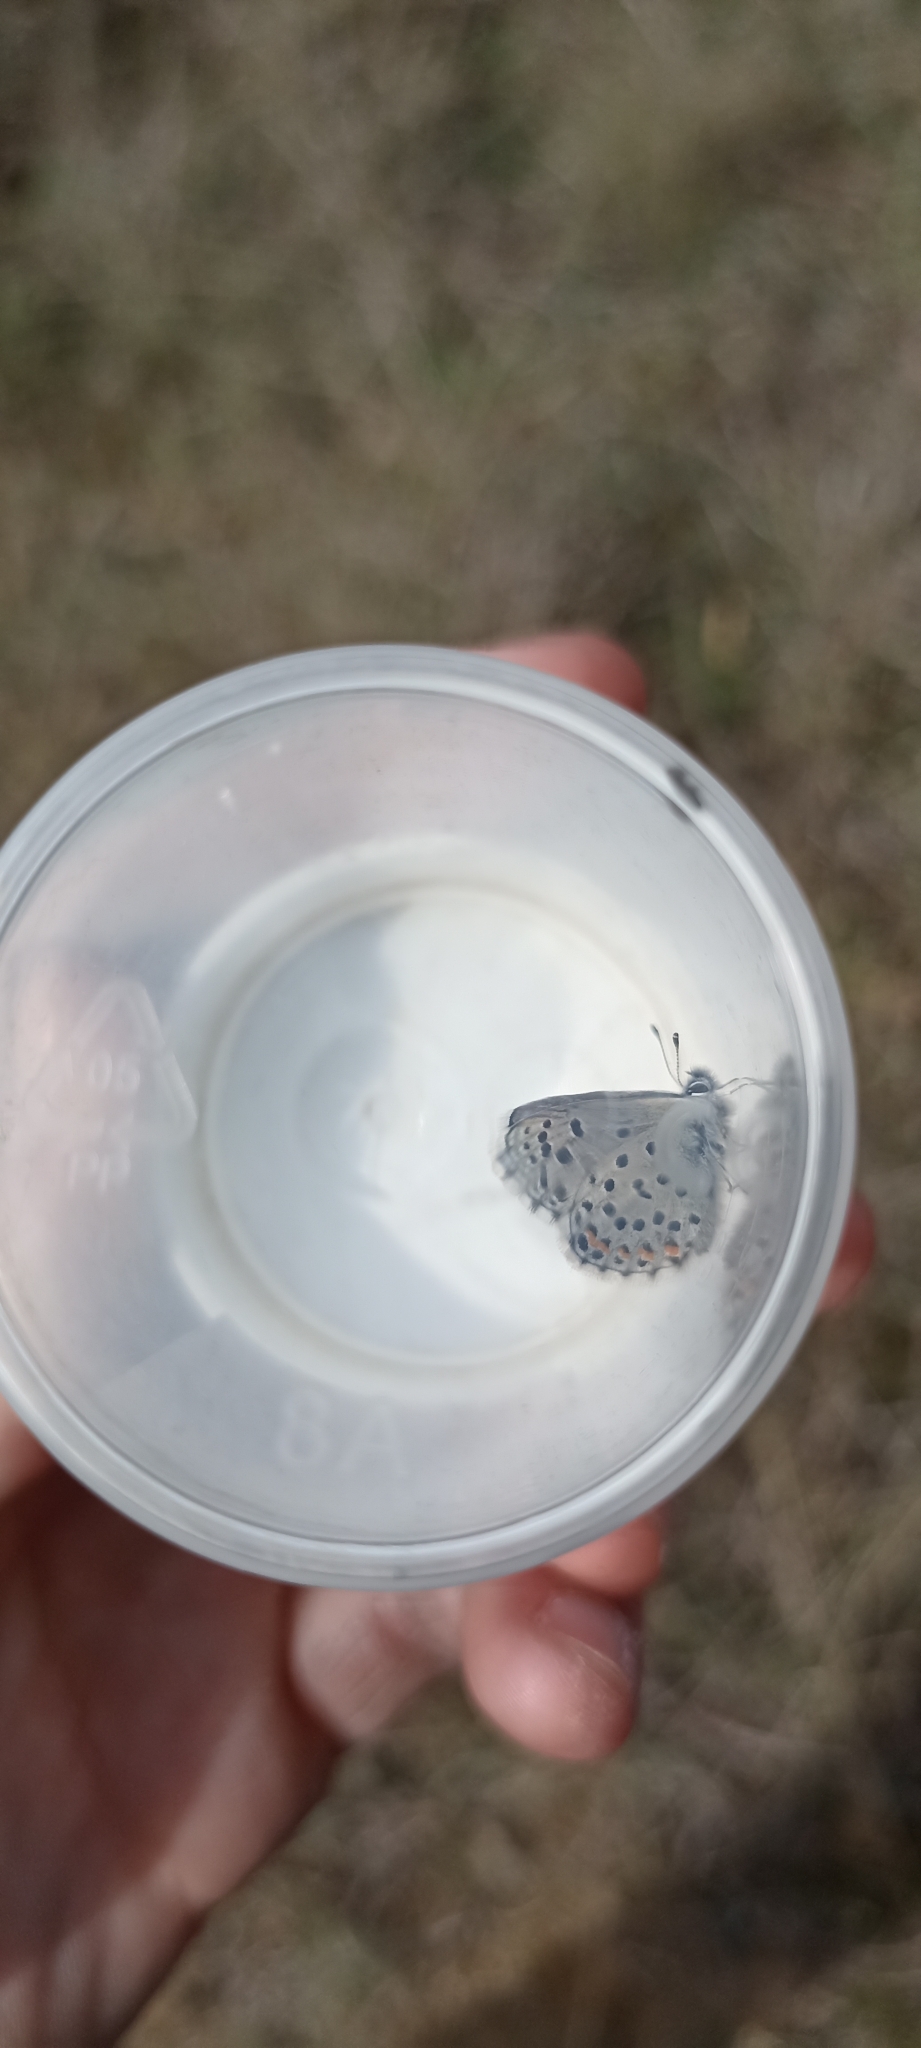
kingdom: Animalia
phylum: Arthropoda
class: Insecta
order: Lepidoptera
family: Lycaenidae
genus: Pseudophilotes
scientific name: Pseudophilotes baton
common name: Baton blue
